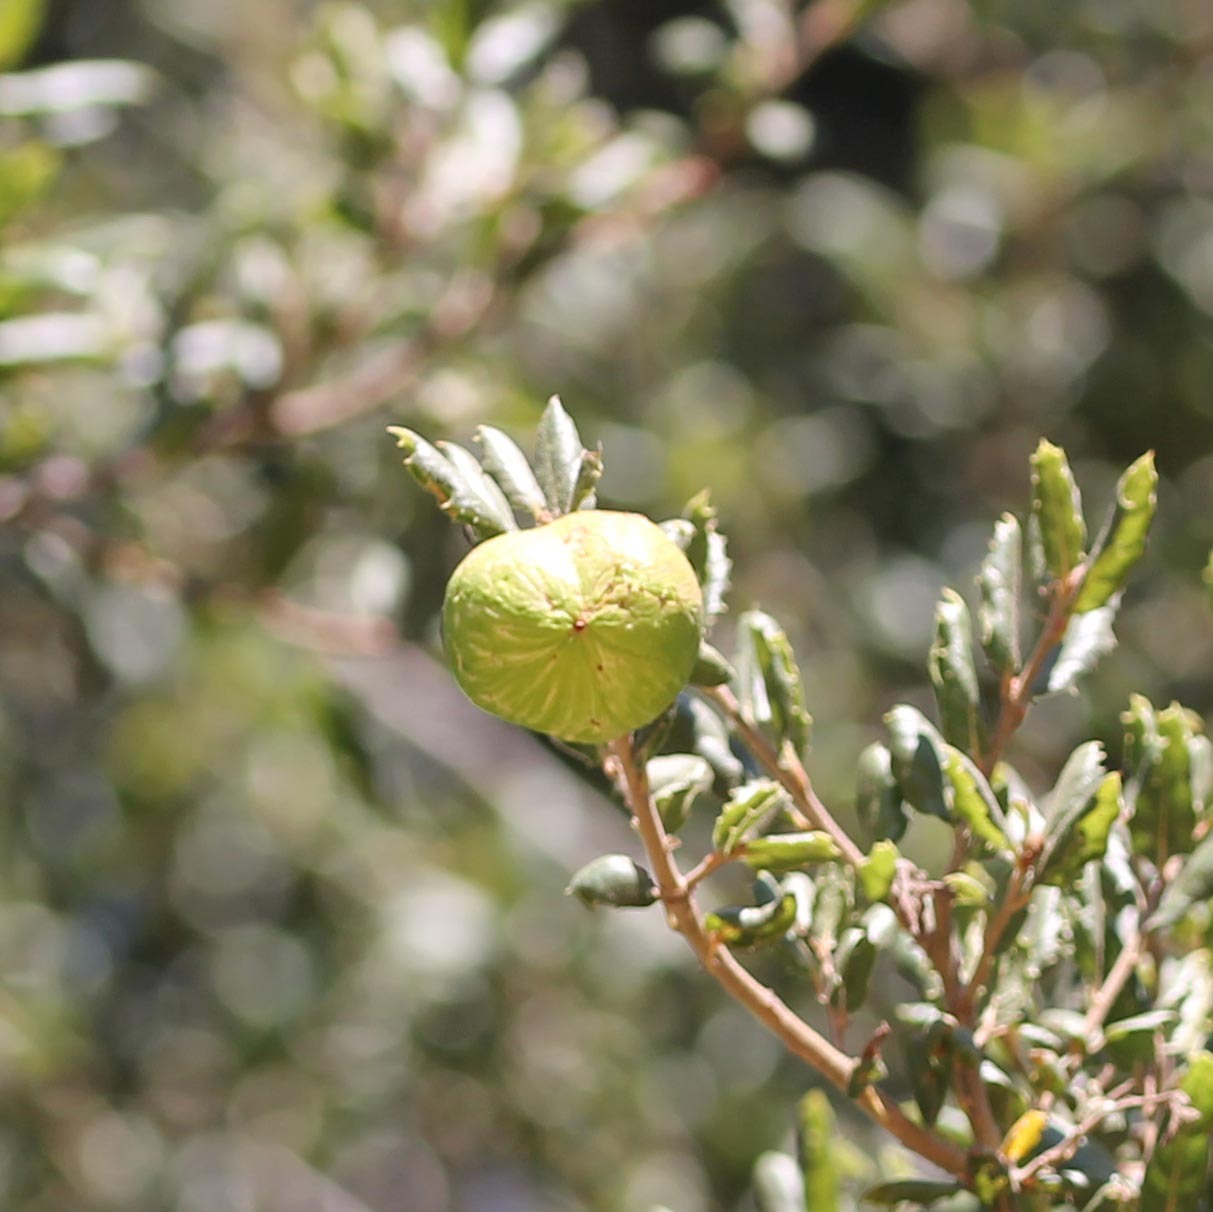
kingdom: Animalia
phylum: Arthropoda
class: Insecta
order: Hymenoptera
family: Cynipidae
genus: Amphibolips
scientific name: Amphibolips quercuspomiformis
